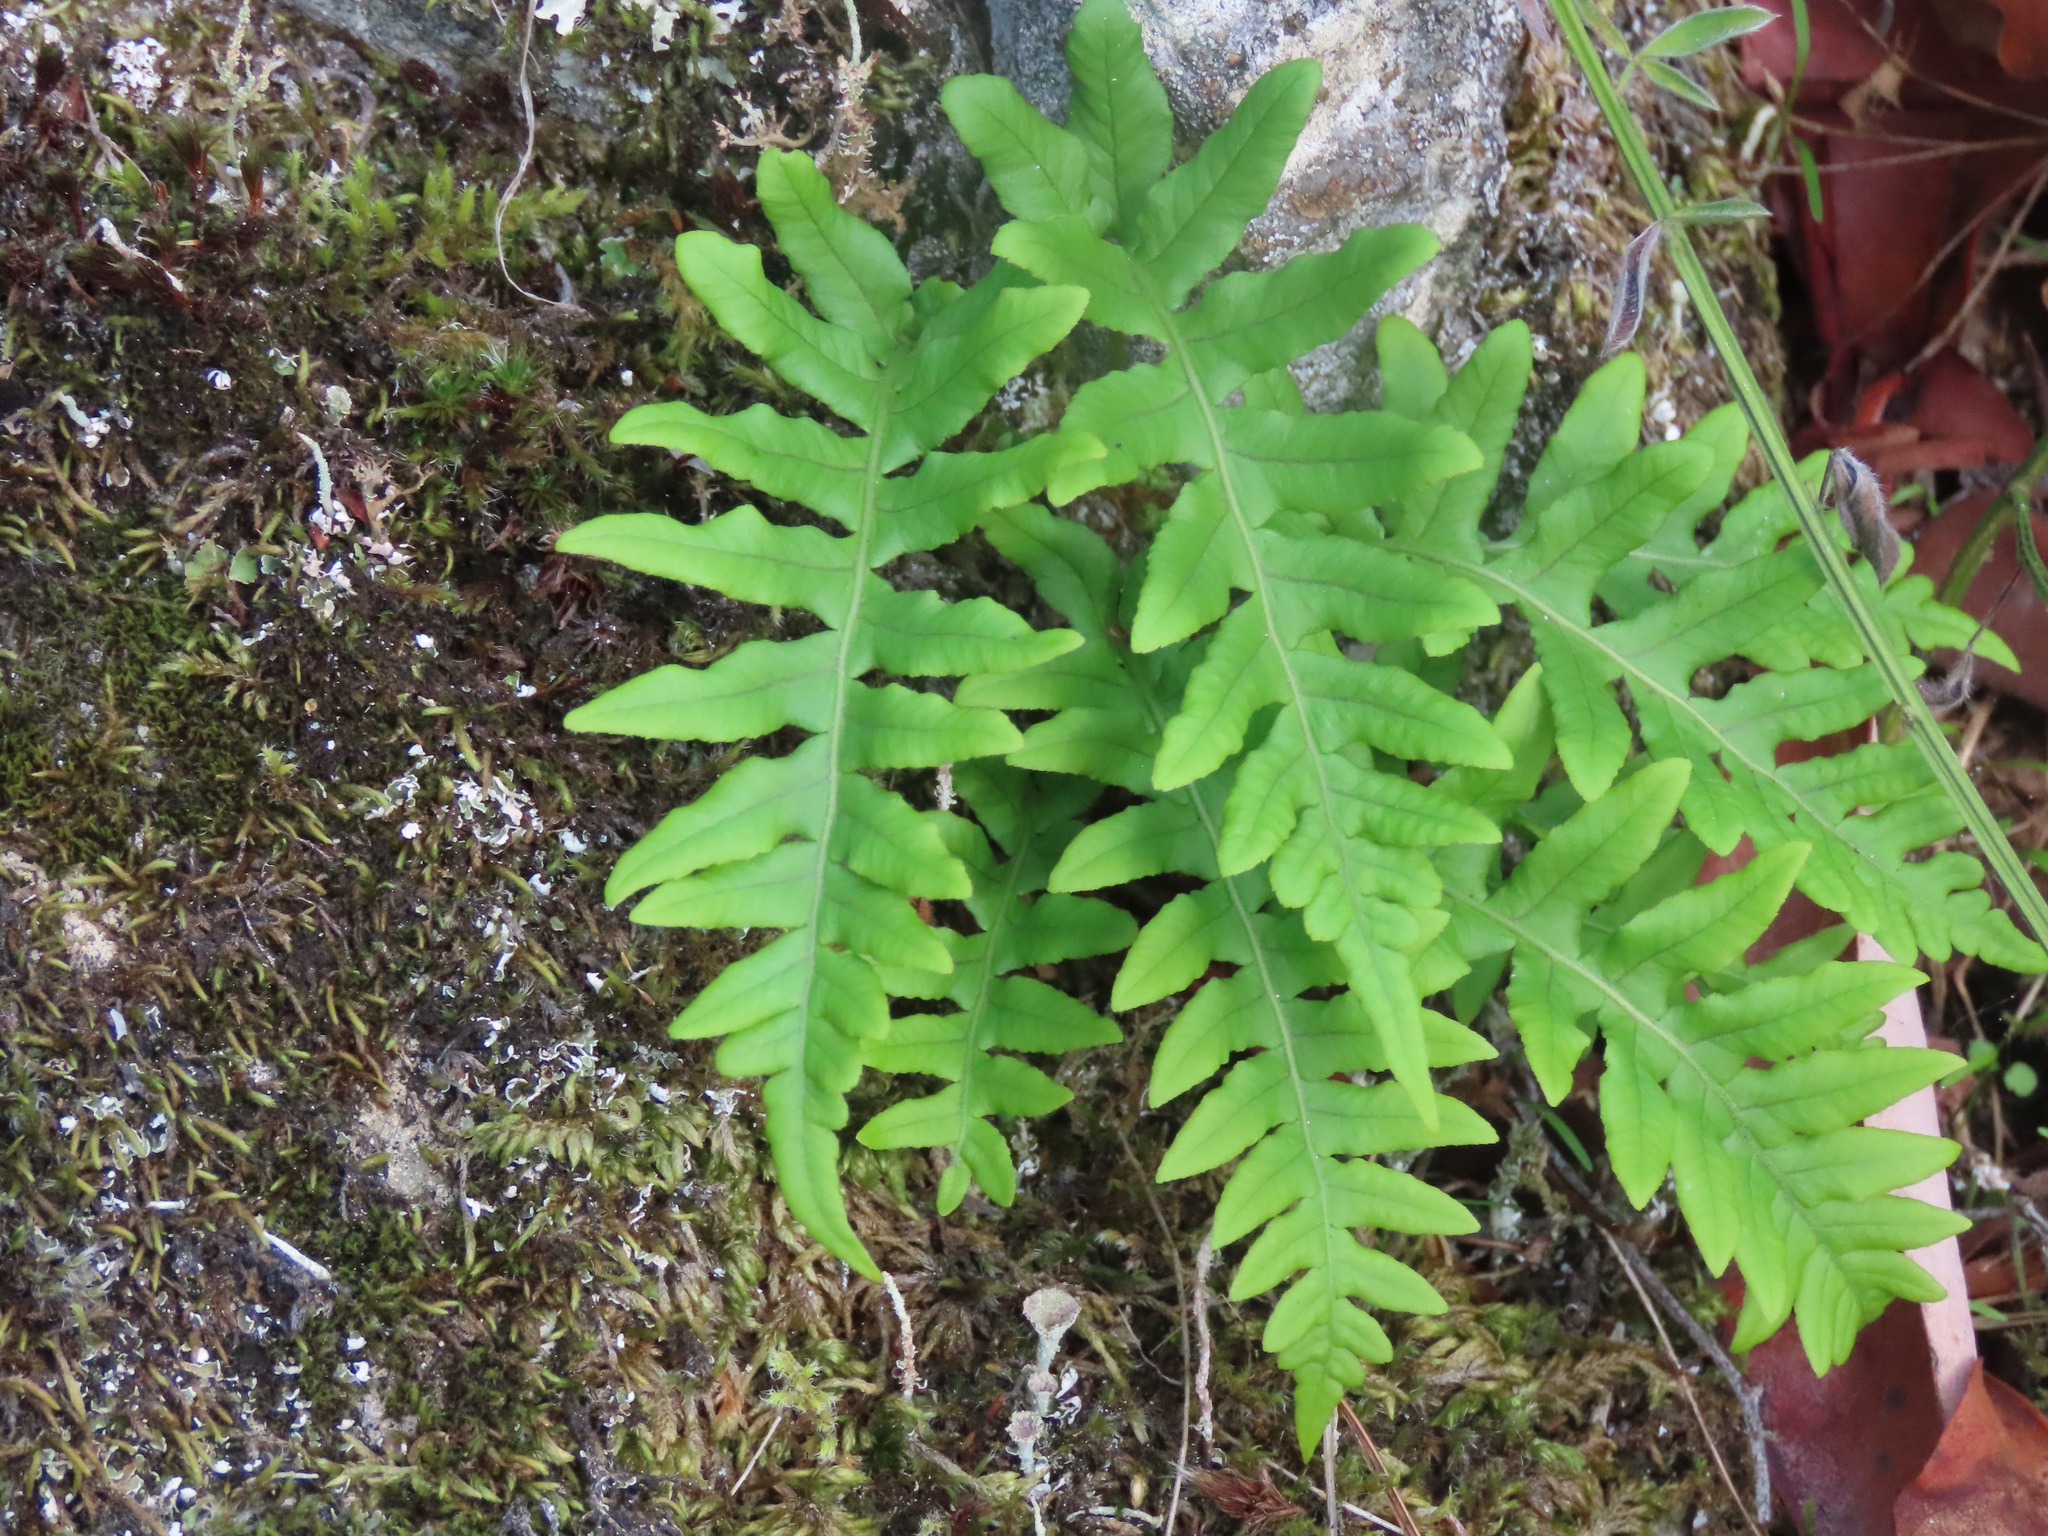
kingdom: Plantae
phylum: Tracheophyta
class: Polypodiopsida
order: Polypodiales
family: Polypodiaceae
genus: Polypodium
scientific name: Polypodium glycyrrhiza
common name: Licorice fern
